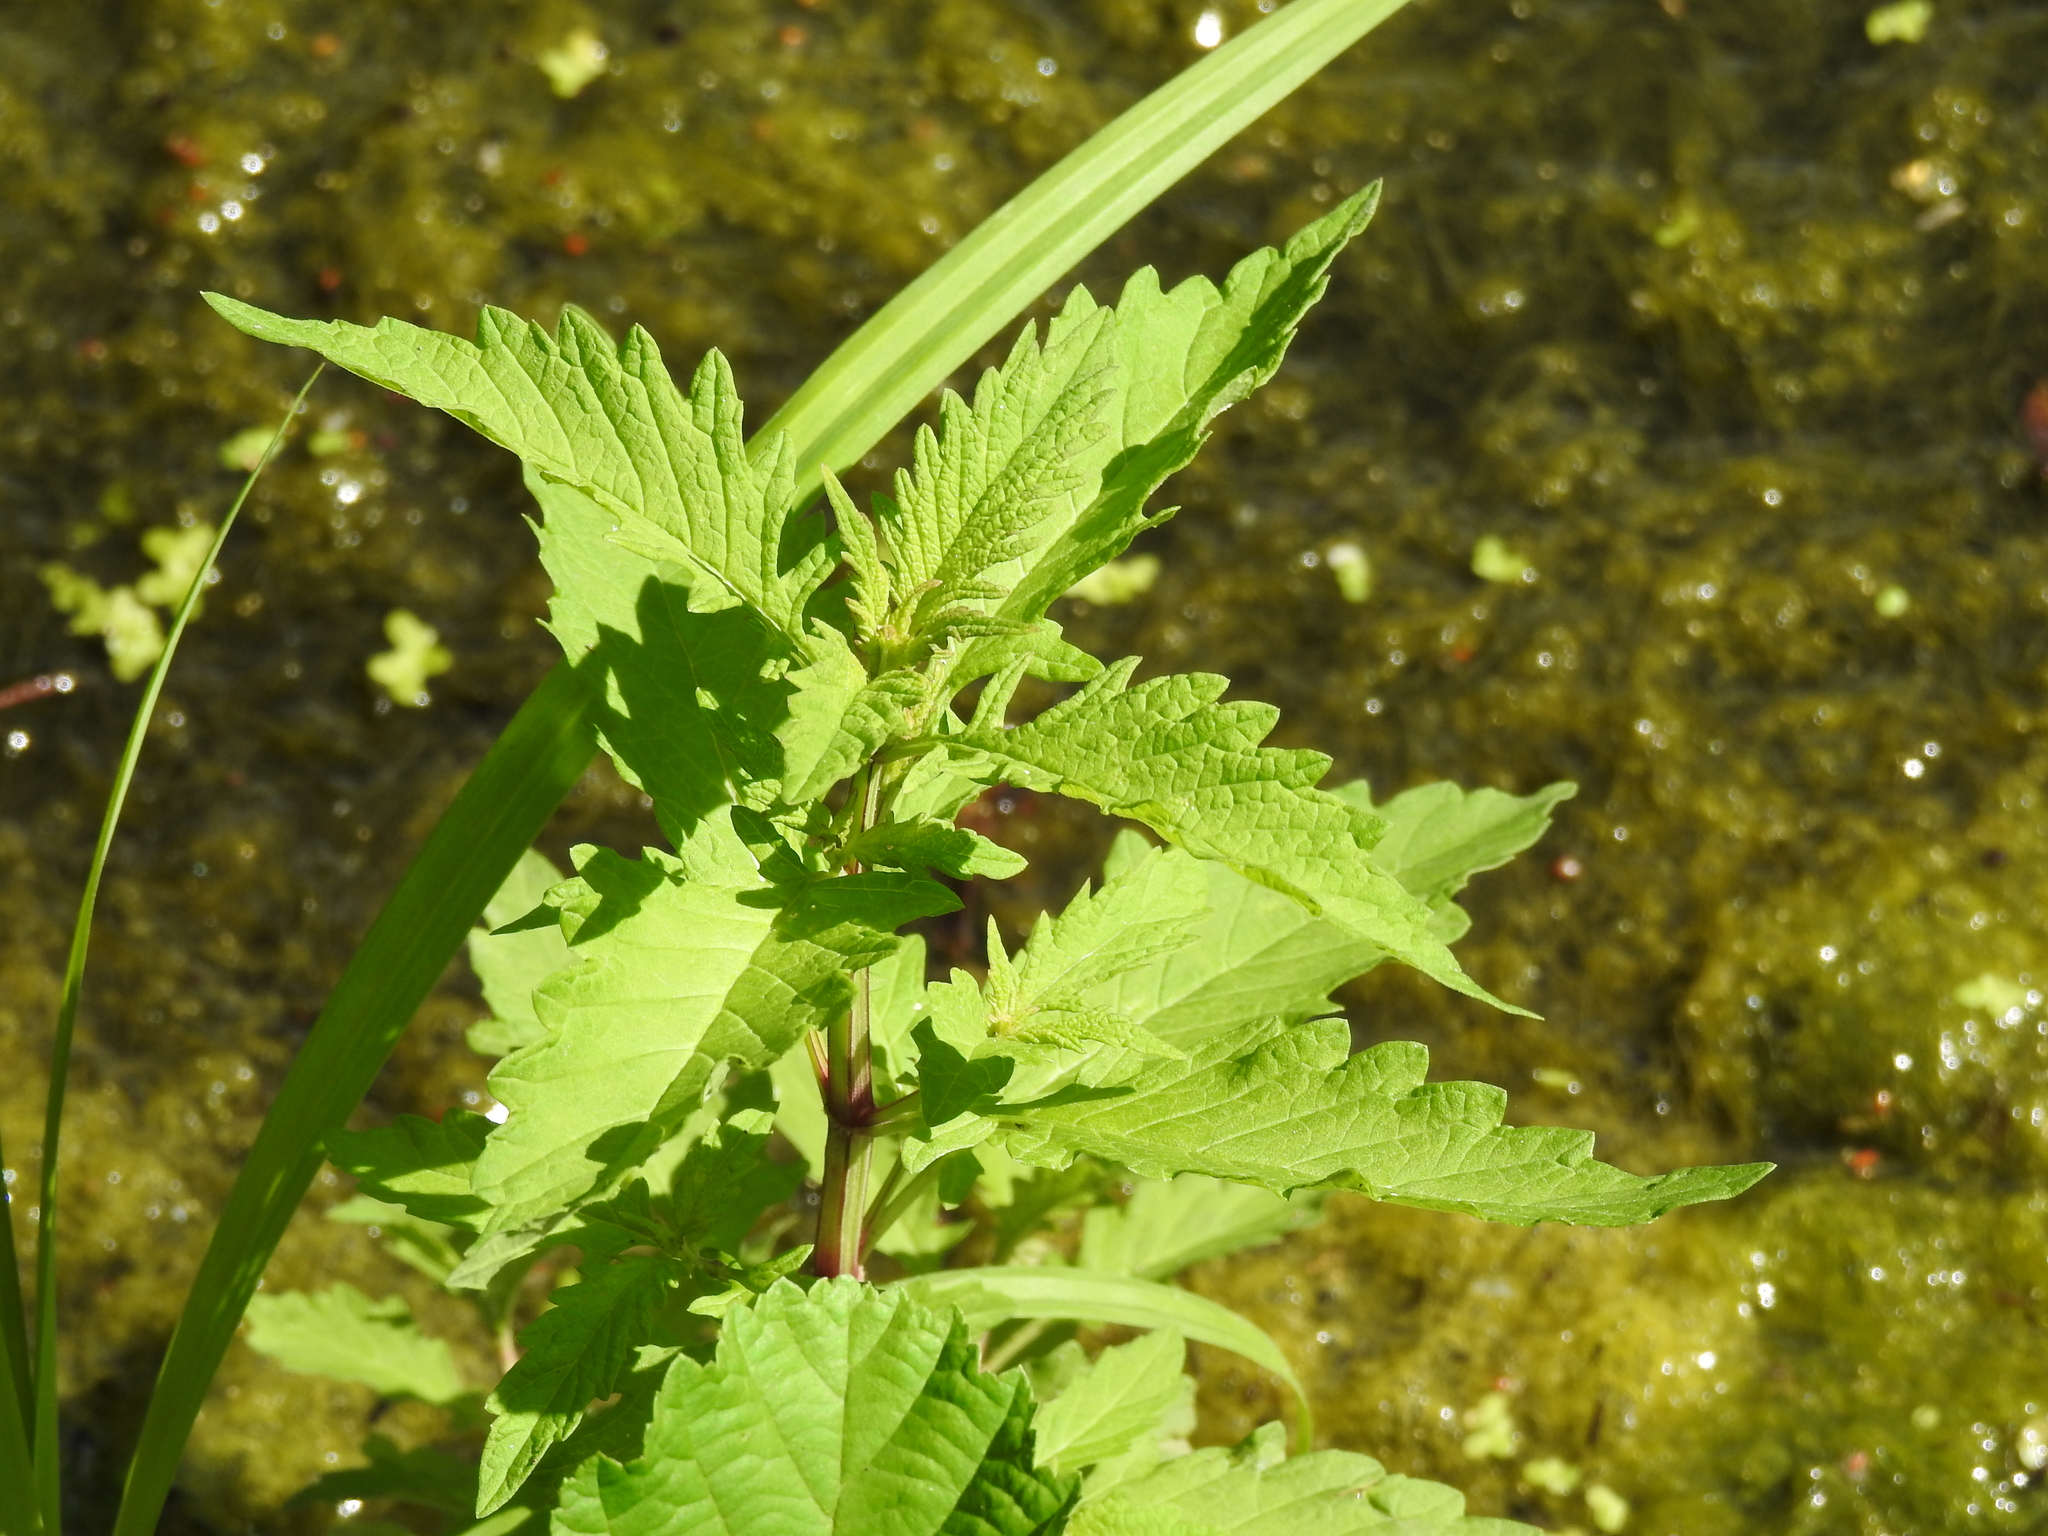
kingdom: Plantae
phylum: Tracheophyta
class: Magnoliopsida
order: Lamiales
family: Lamiaceae
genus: Lycopus
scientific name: Lycopus europaeus
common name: European bugleweed
